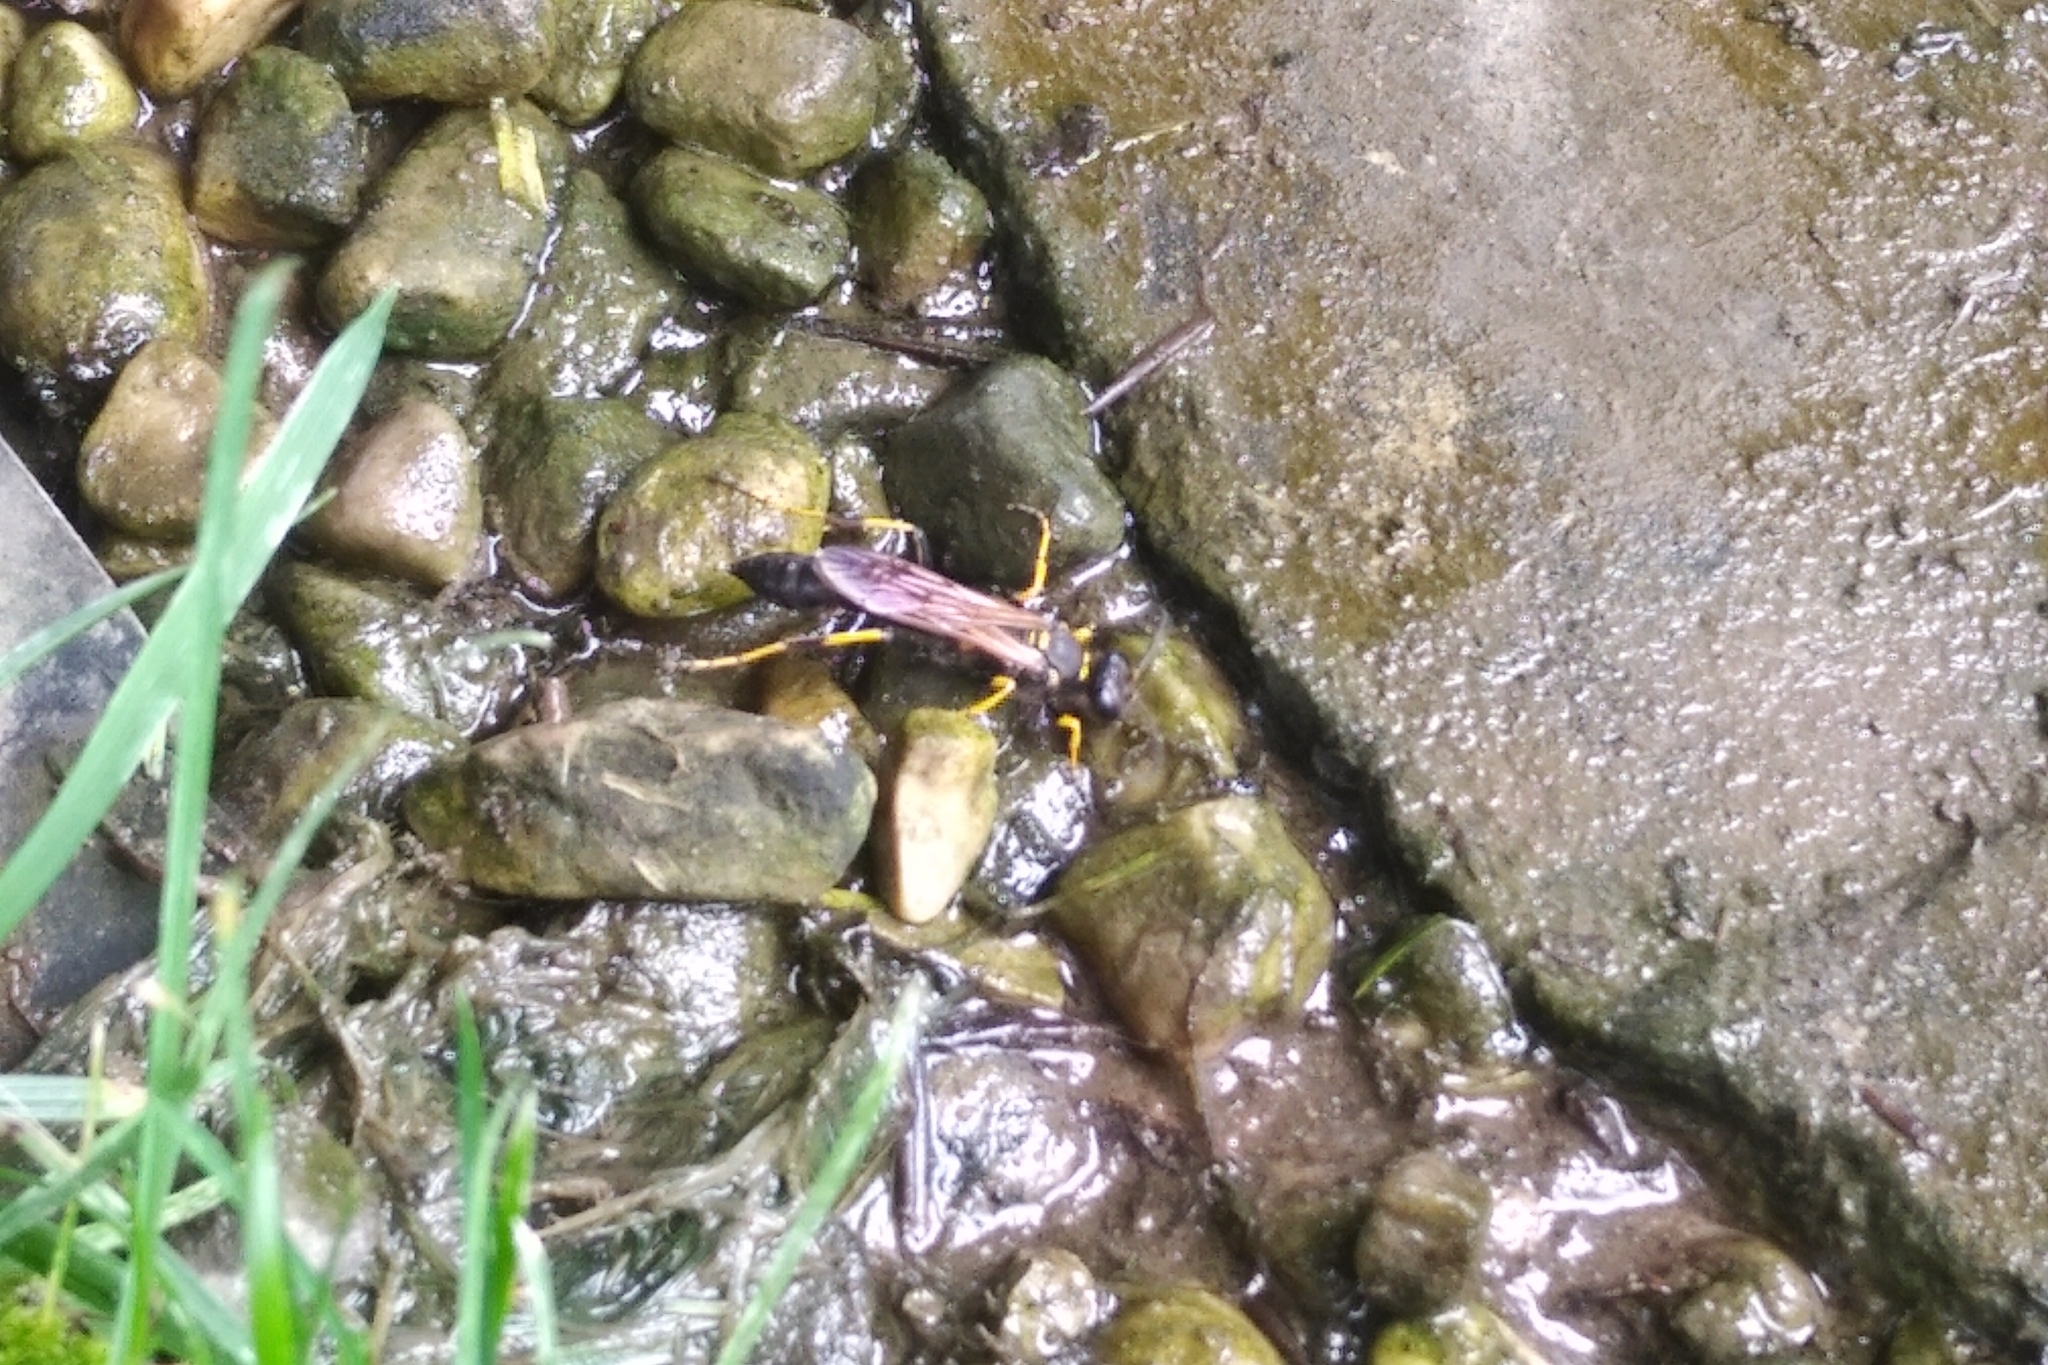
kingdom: Animalia
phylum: Arthropoda
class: Insecta
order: Hymenoptera
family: Sphecidae
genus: Sceliphron
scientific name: Sceliphron caementarium
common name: Mud dauber
